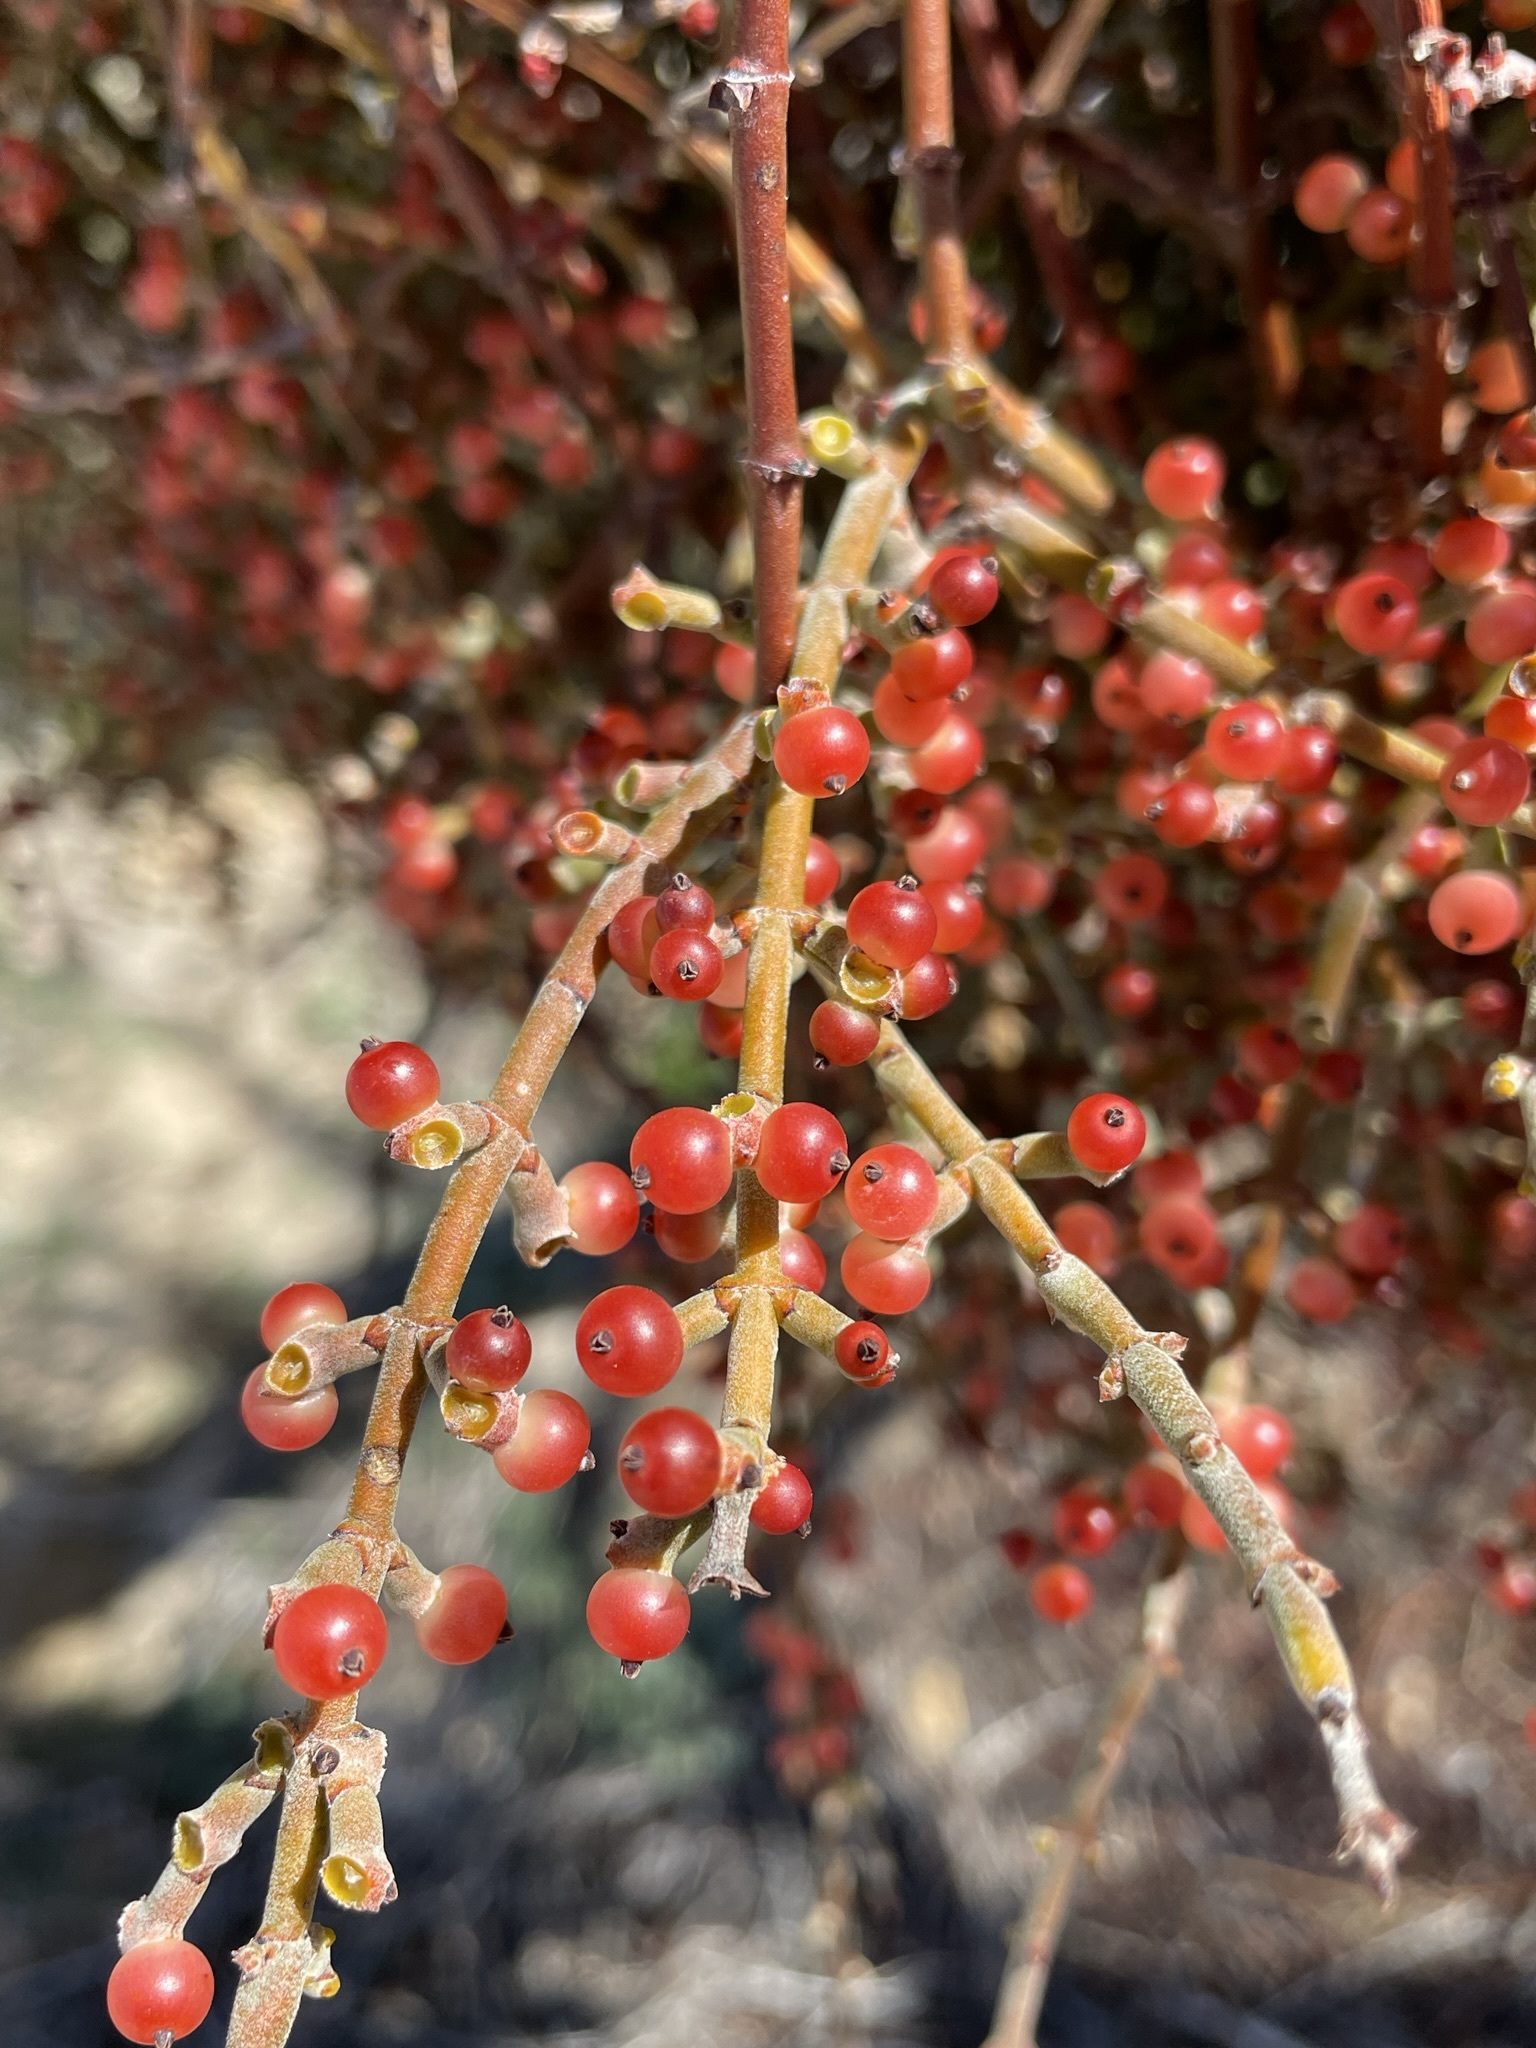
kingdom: Plantae
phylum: Tracheophyta
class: Magnoliopsida
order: Santalales
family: Viscaceae
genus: Phoradendron
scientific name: Phoradendron californicum
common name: Acacia mistletoe
